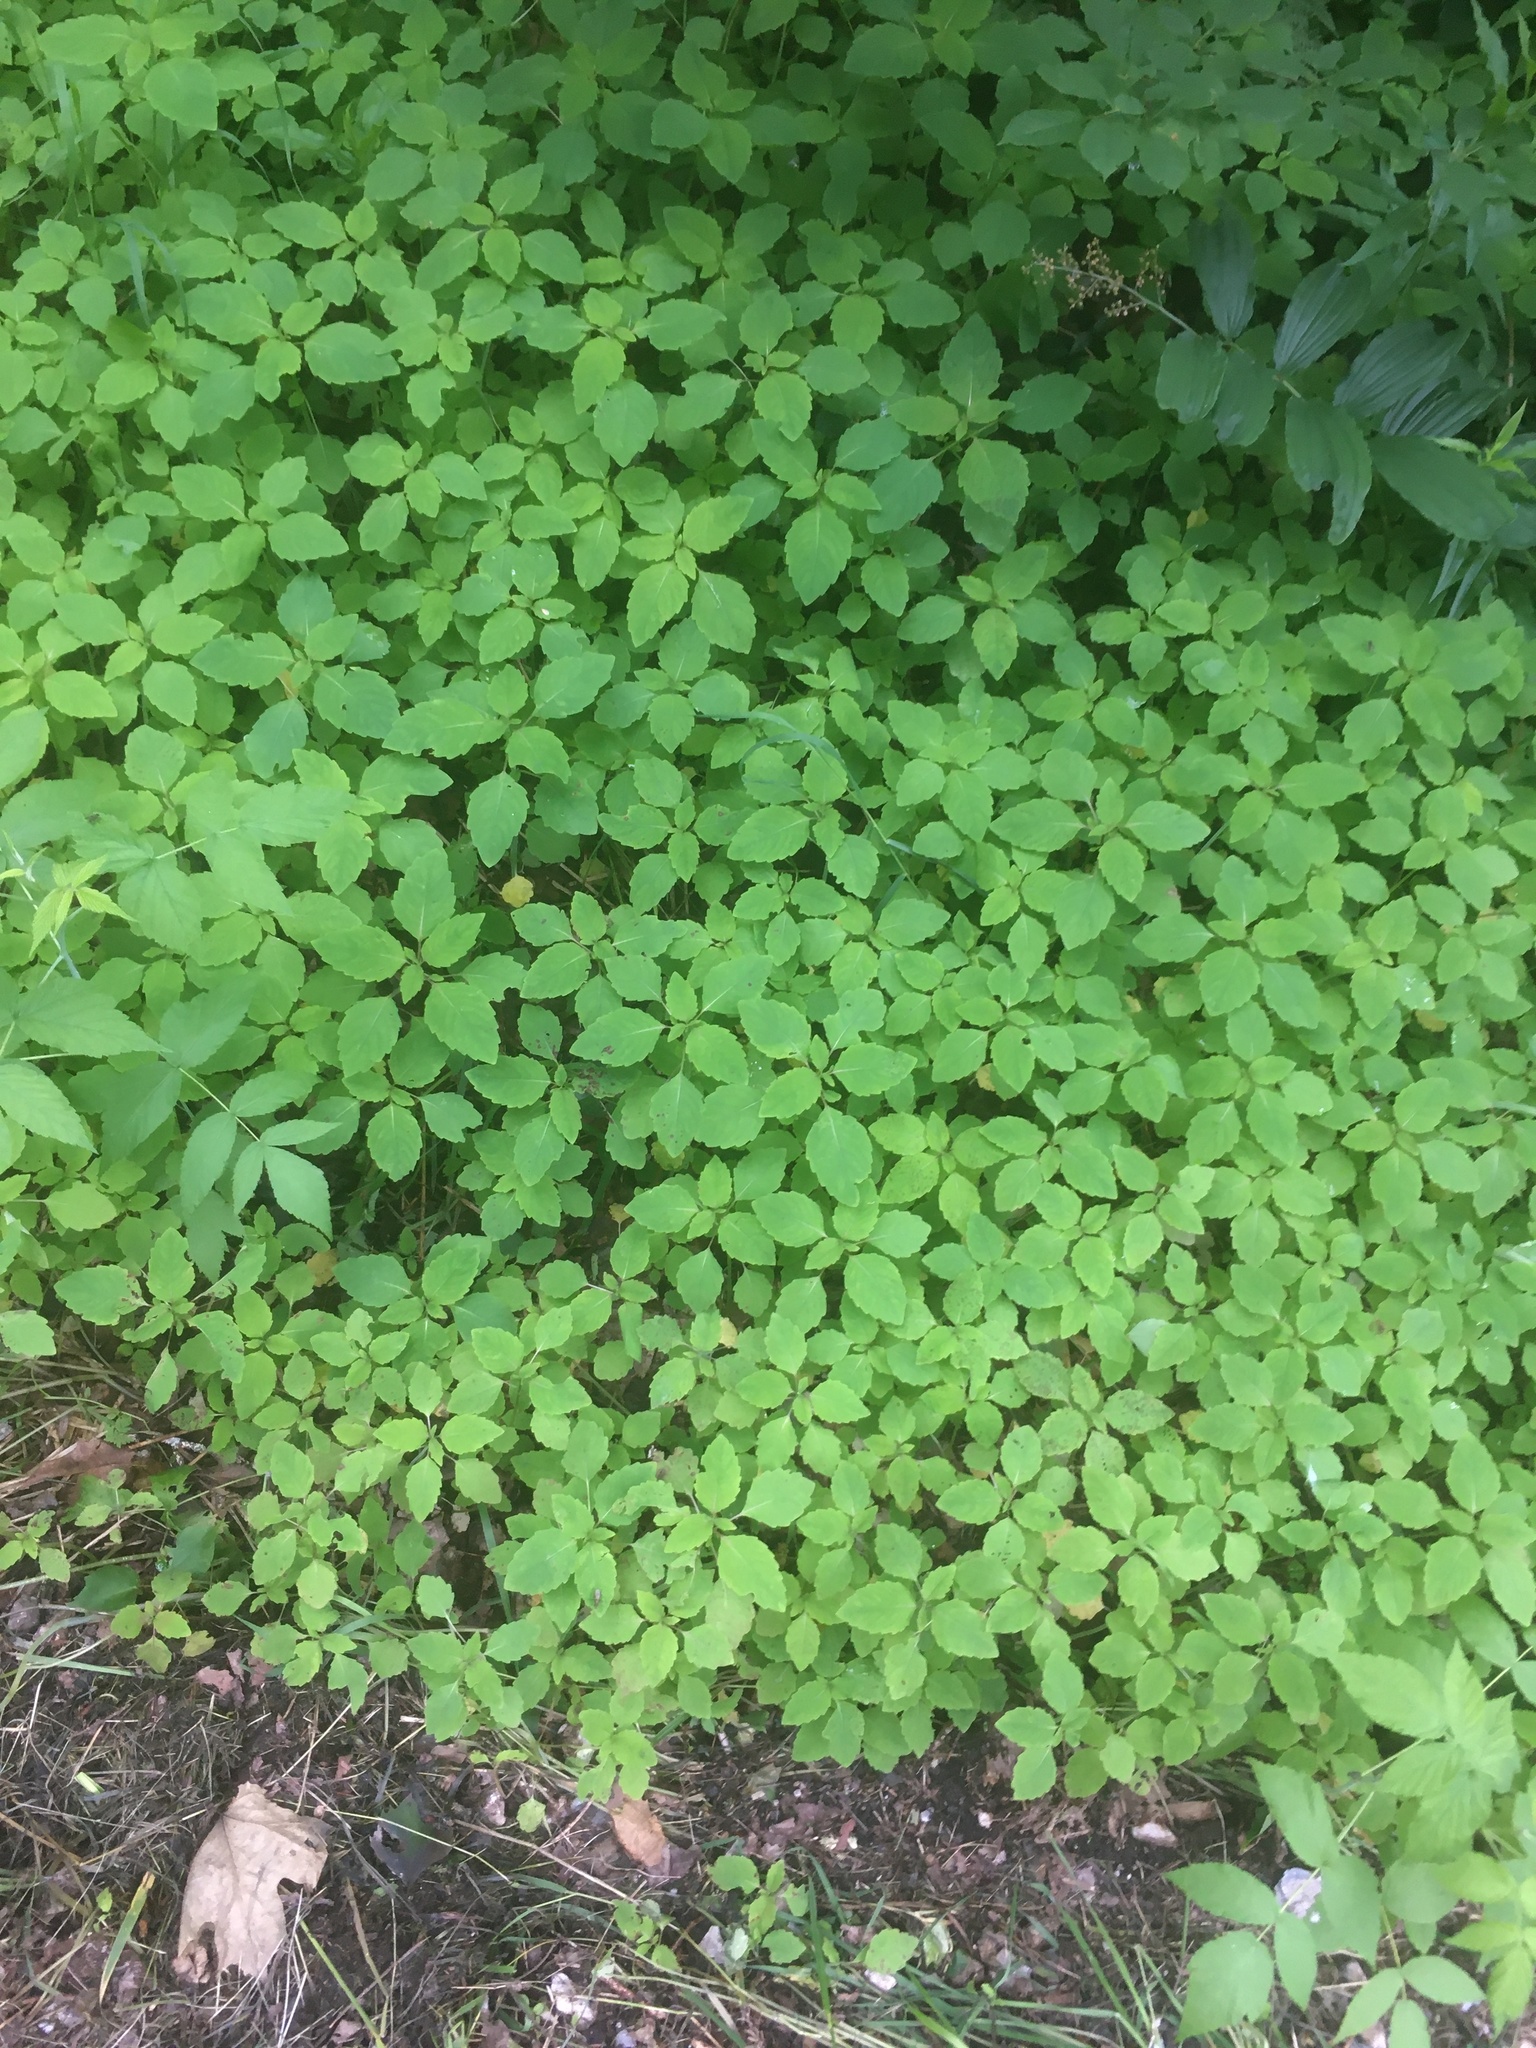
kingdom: Plantae
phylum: Tracheophyta
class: Magnoliopsida
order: Ericales
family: Balsaminaceae
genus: Impatiens
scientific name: Impatiens capensis
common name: Orange balsam
